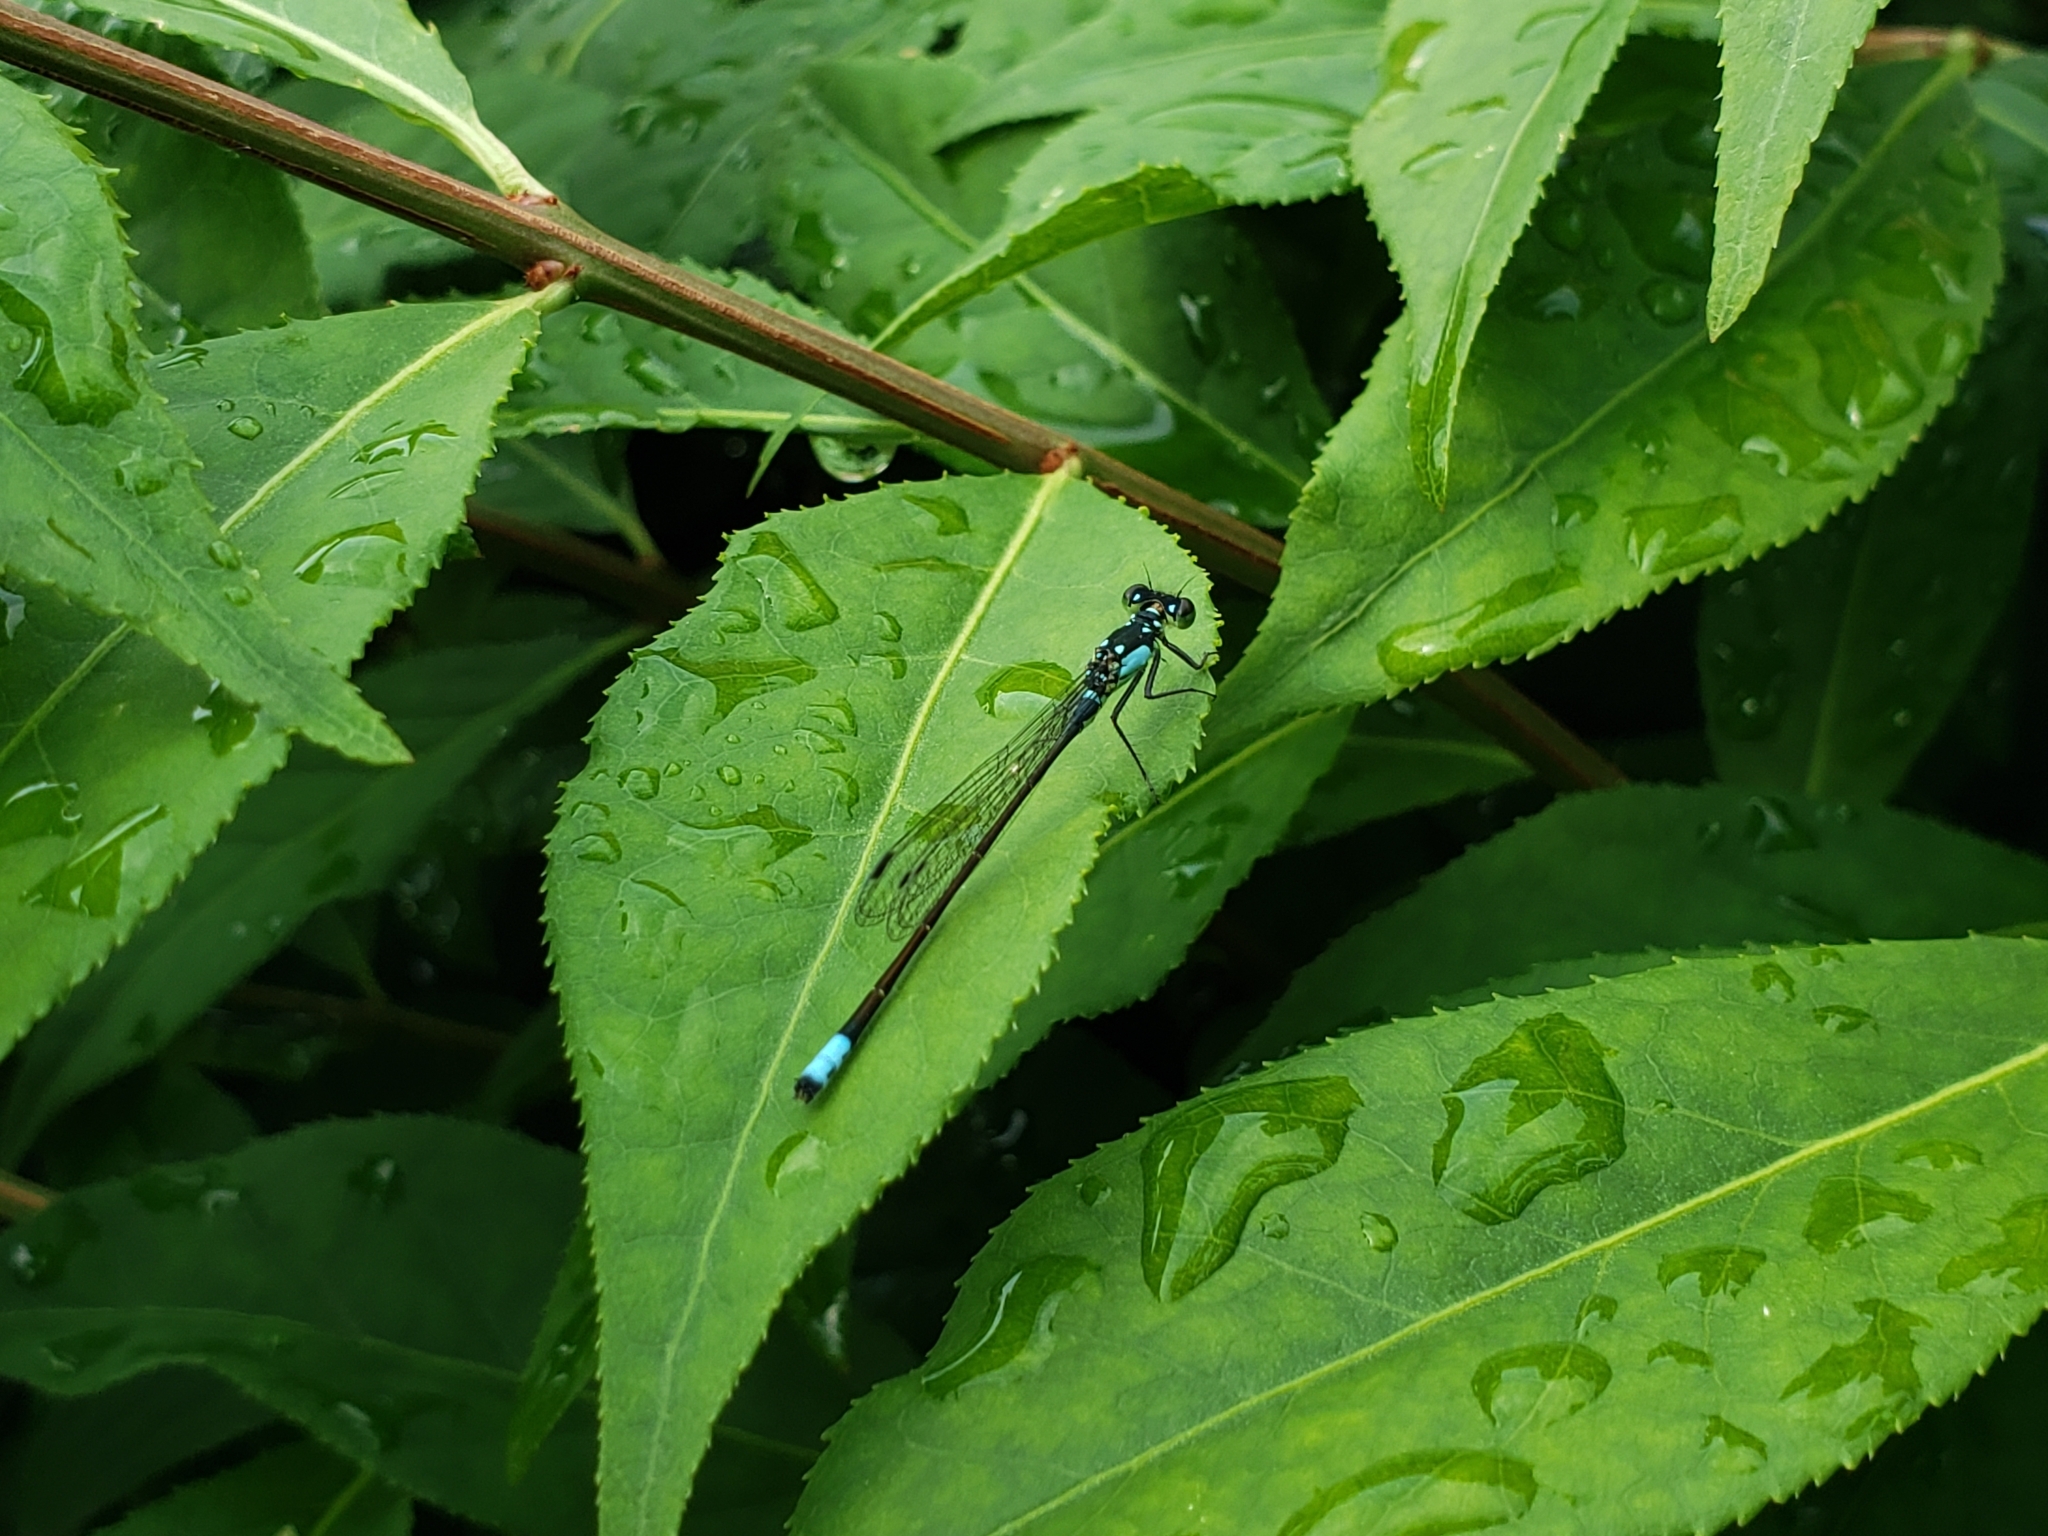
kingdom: Animalia
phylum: Arthropoda
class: Insecta
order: Odonata
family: Coenagrionidae
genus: Ischnura
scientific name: Ischnura cervula
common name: Pacific forktail
